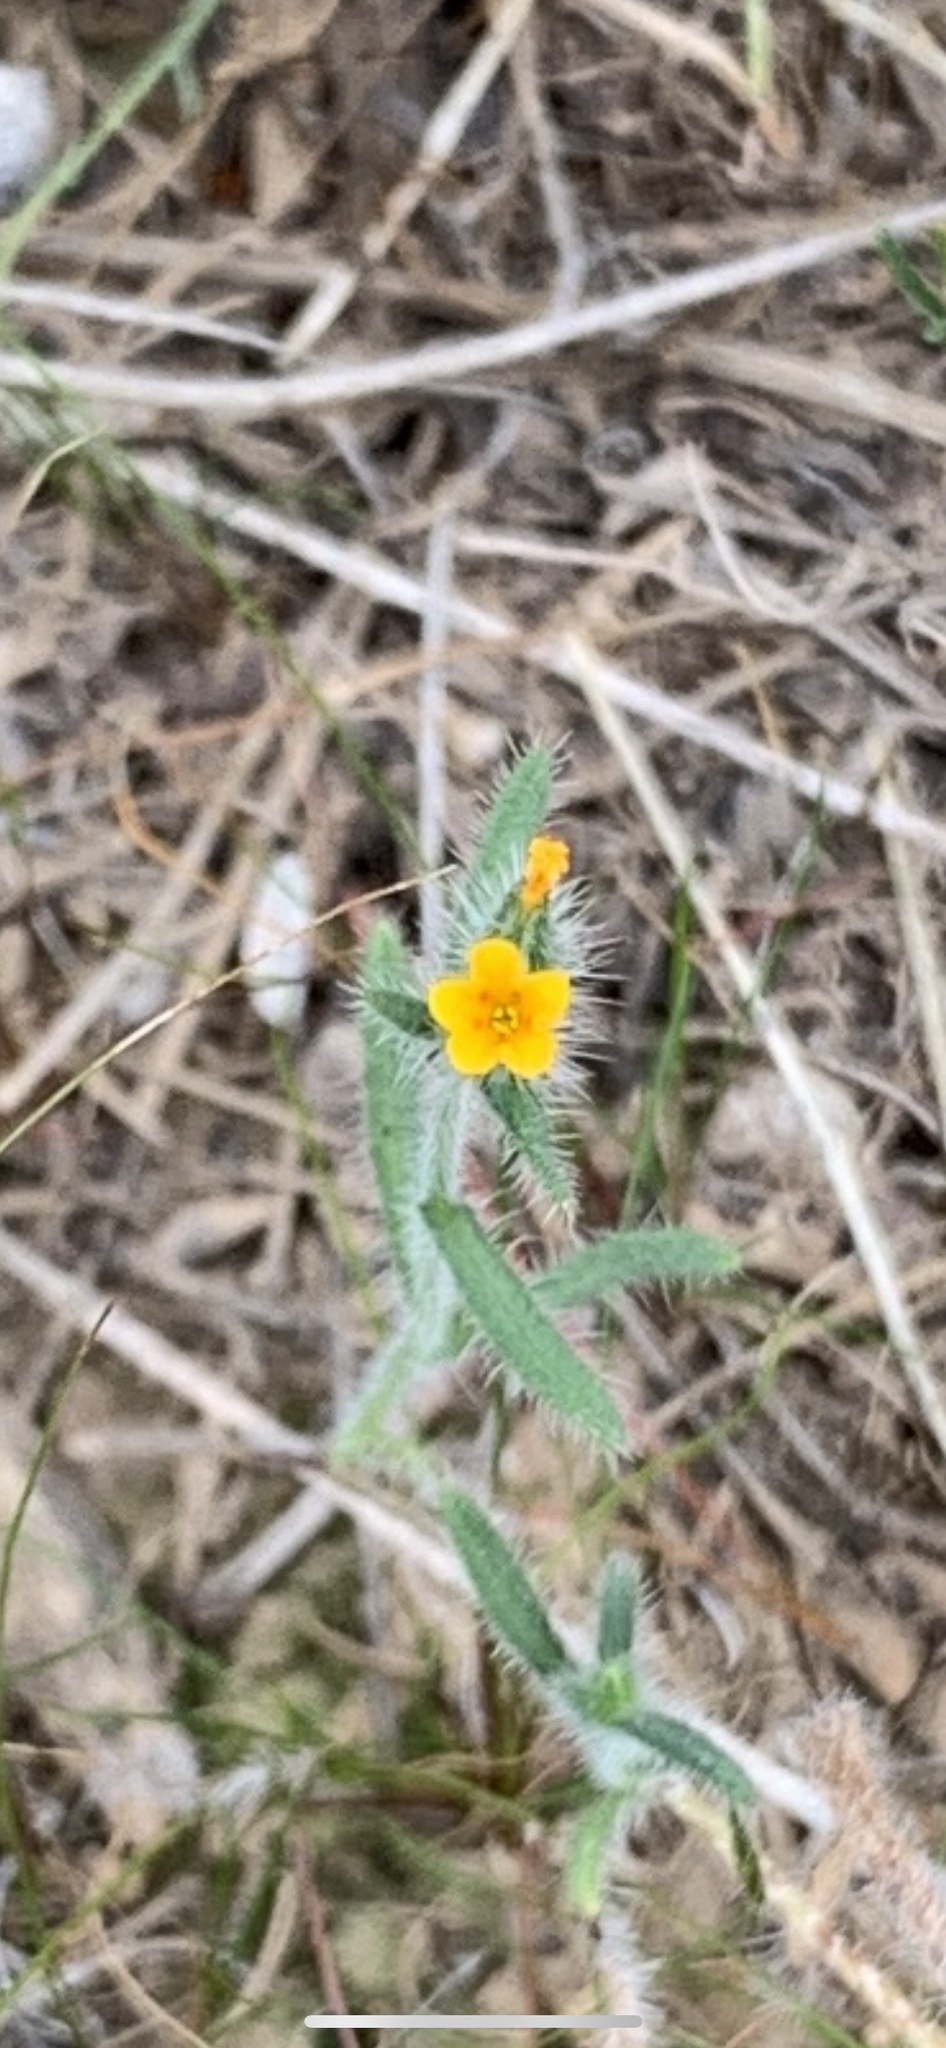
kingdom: Plantae
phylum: Tracheophyta
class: Magnoliopsida
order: Boraginales
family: Boraginaceae
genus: Amsinckia
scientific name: Amsinckia menziesii
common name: Menzies' fiddleneck
